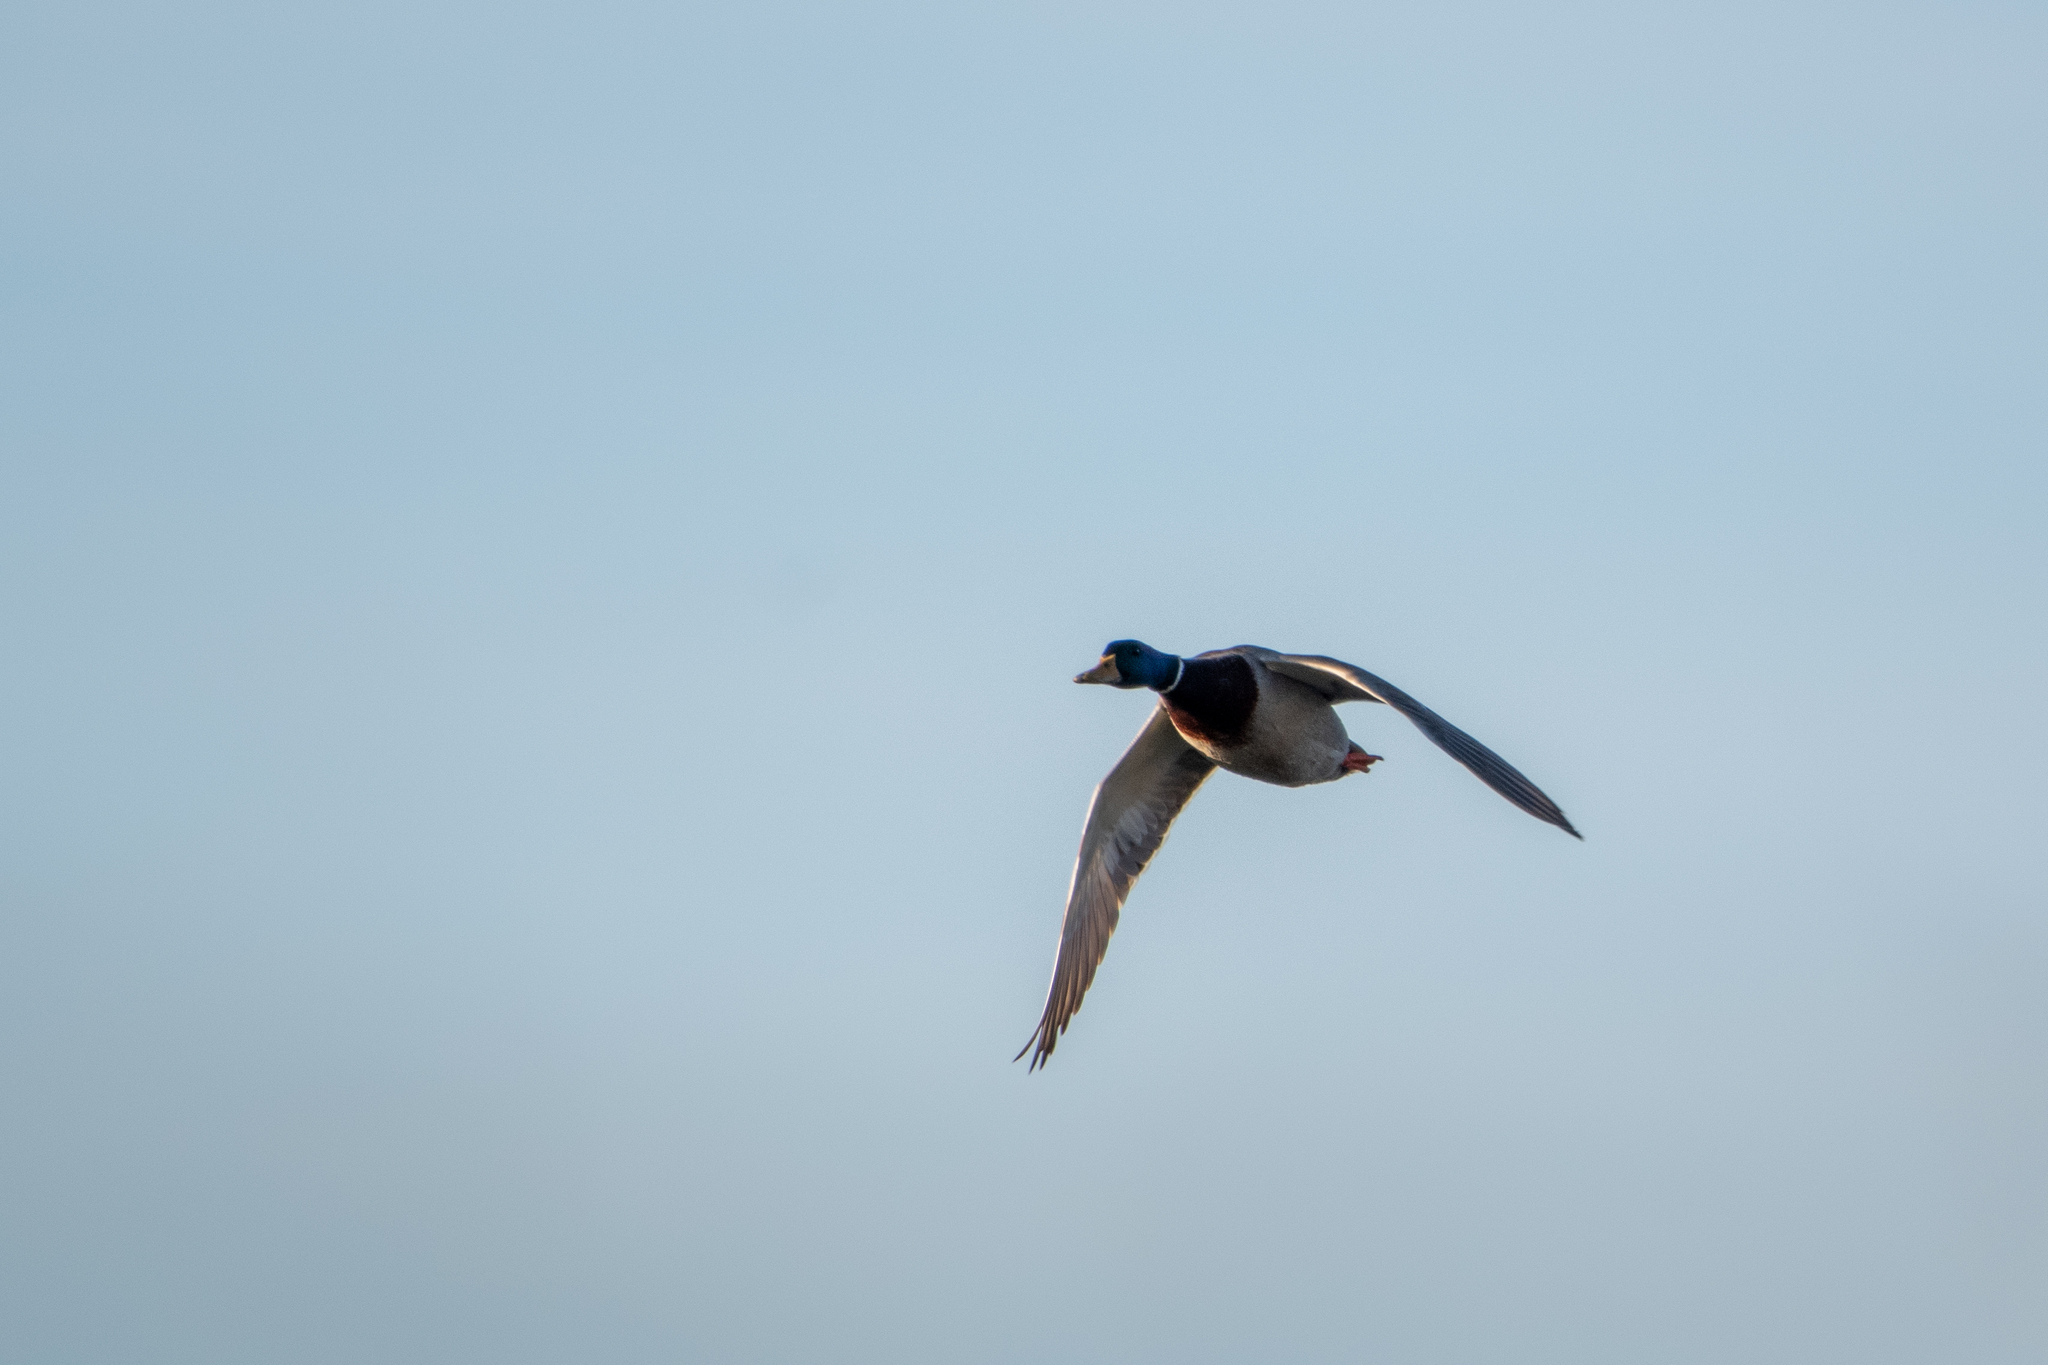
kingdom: Animalia
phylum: Chordata
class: Aves
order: Anseriformes
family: Anatidae
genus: Anas
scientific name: Anas platyrhynchos
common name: Mallard
